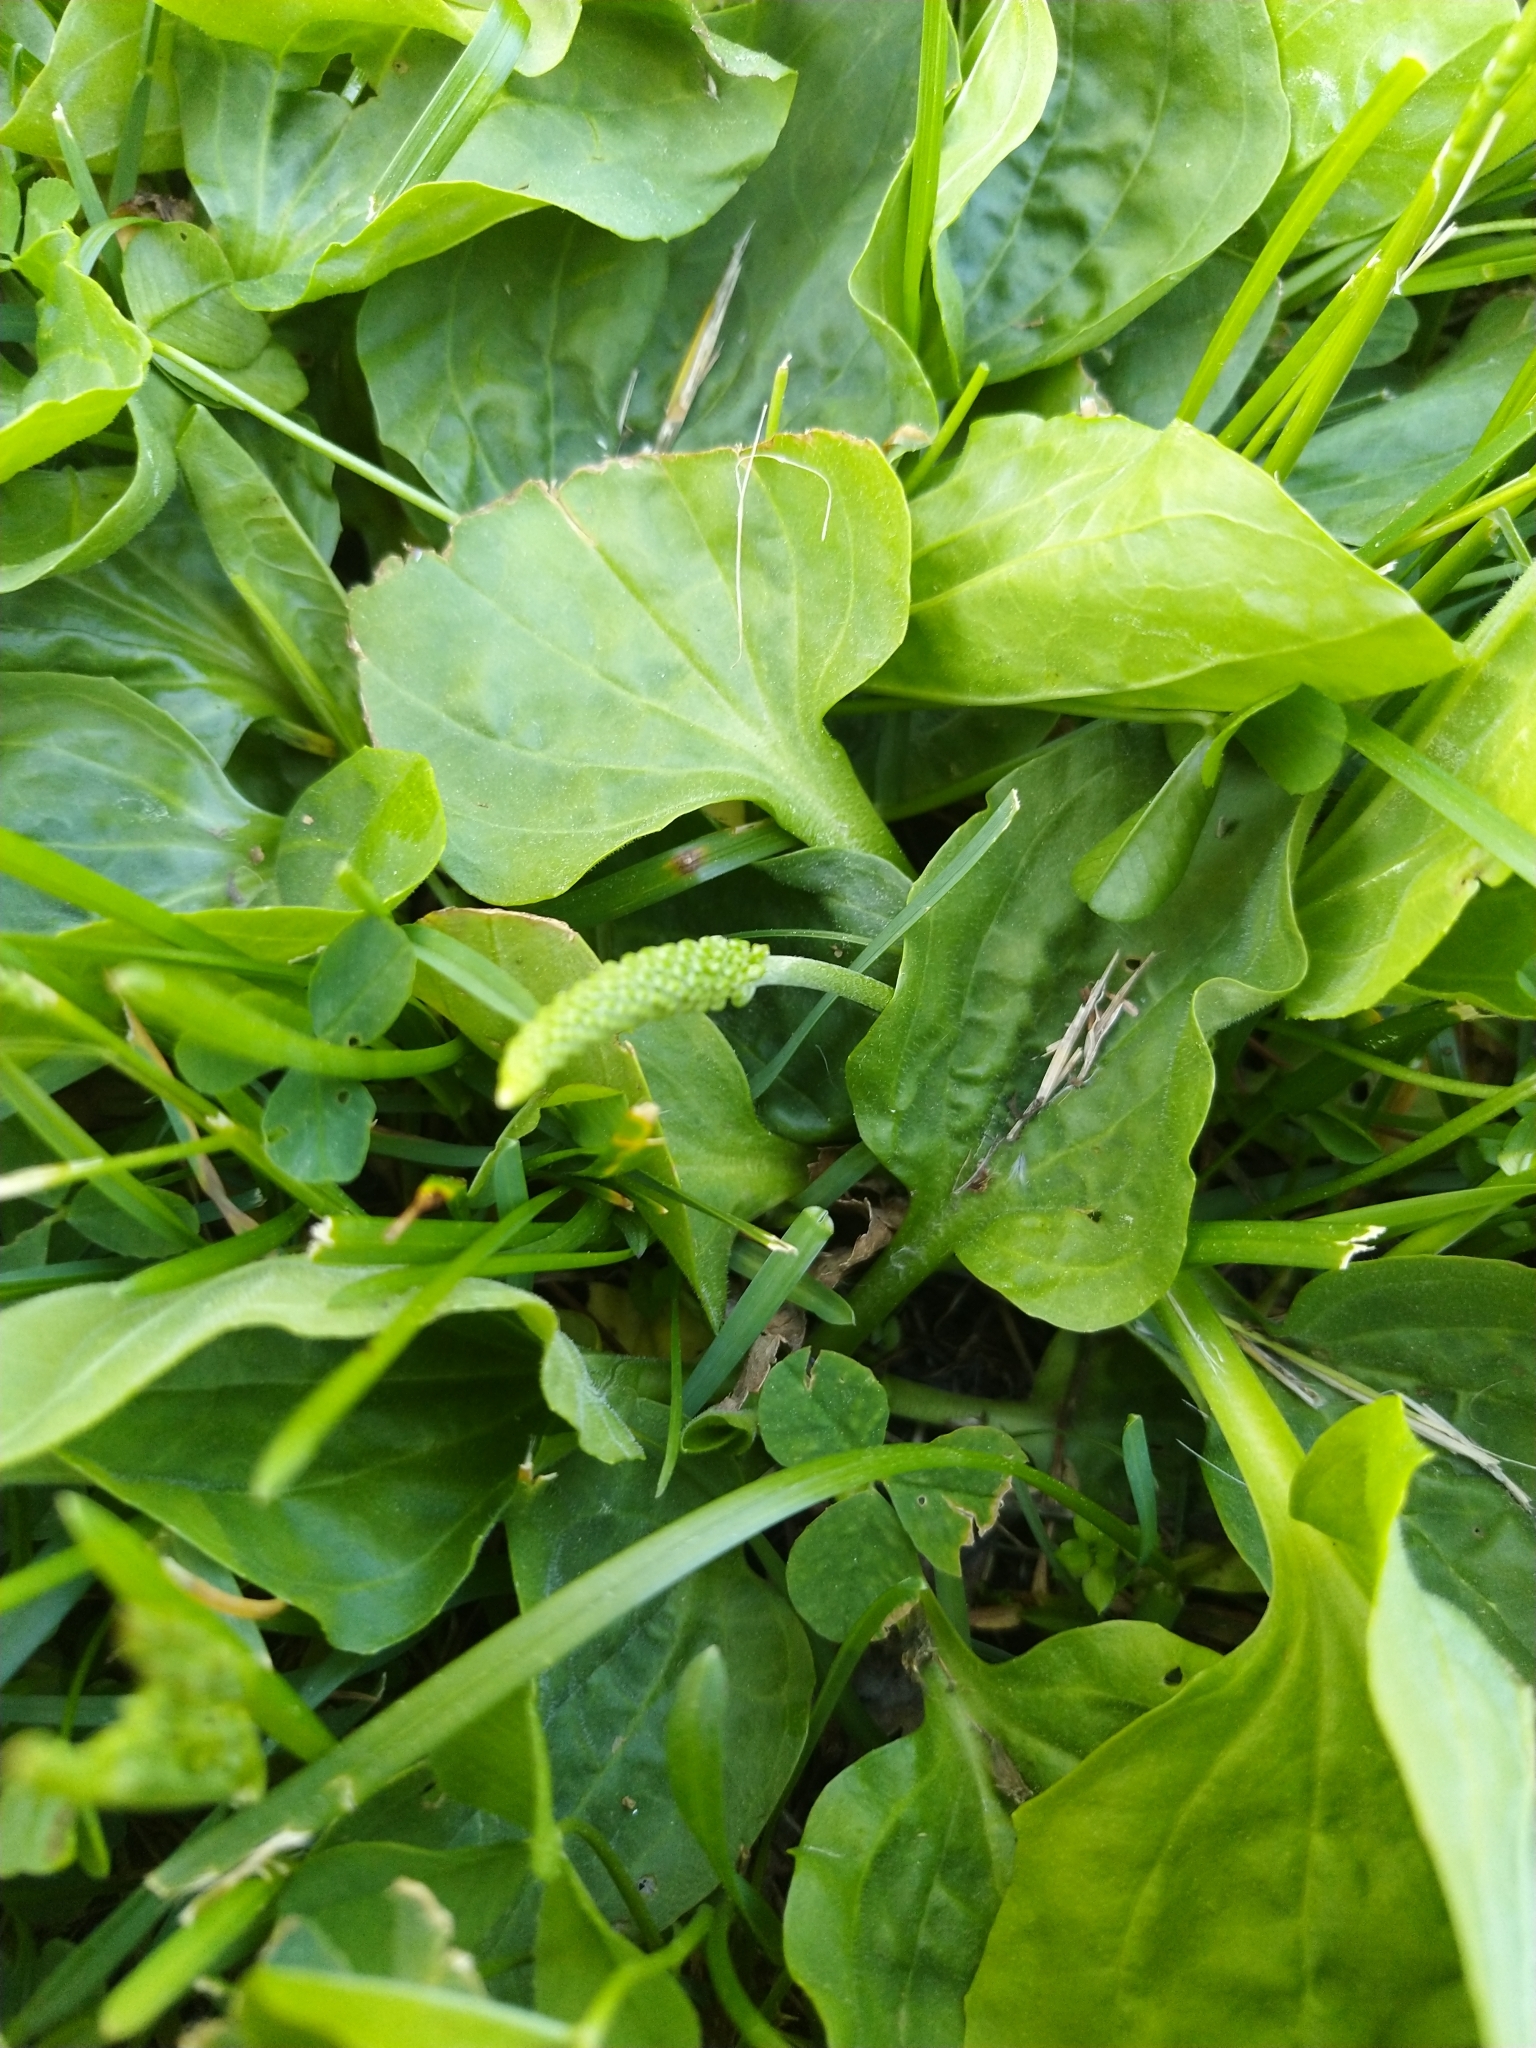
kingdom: Plantae
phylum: Tracheophyta
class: Magnoliopsida
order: Lamiales
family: Plantaginaceae
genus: Plantago
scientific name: Plantago major
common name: Common plantain
